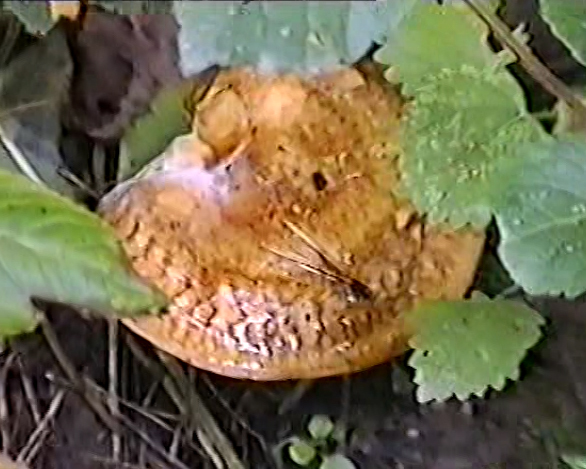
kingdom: Fungi
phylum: Basidiomycota
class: Agaricomycetes
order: Boletales
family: Paxillaceae
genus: Paxillus
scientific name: Paxillus involutus
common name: Brown roll rim
